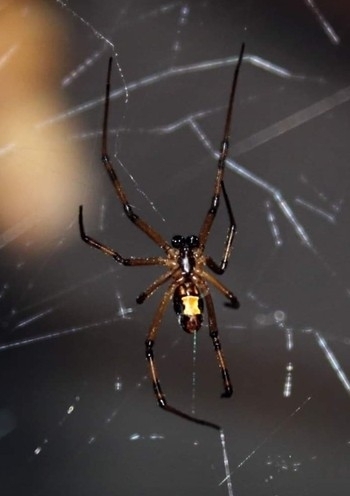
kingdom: Animalia
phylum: Arthropoda
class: Arachnida
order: Araneae
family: Theridiidae
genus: Latrodectus
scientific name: Latrodectus hesperus
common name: Western black widow
